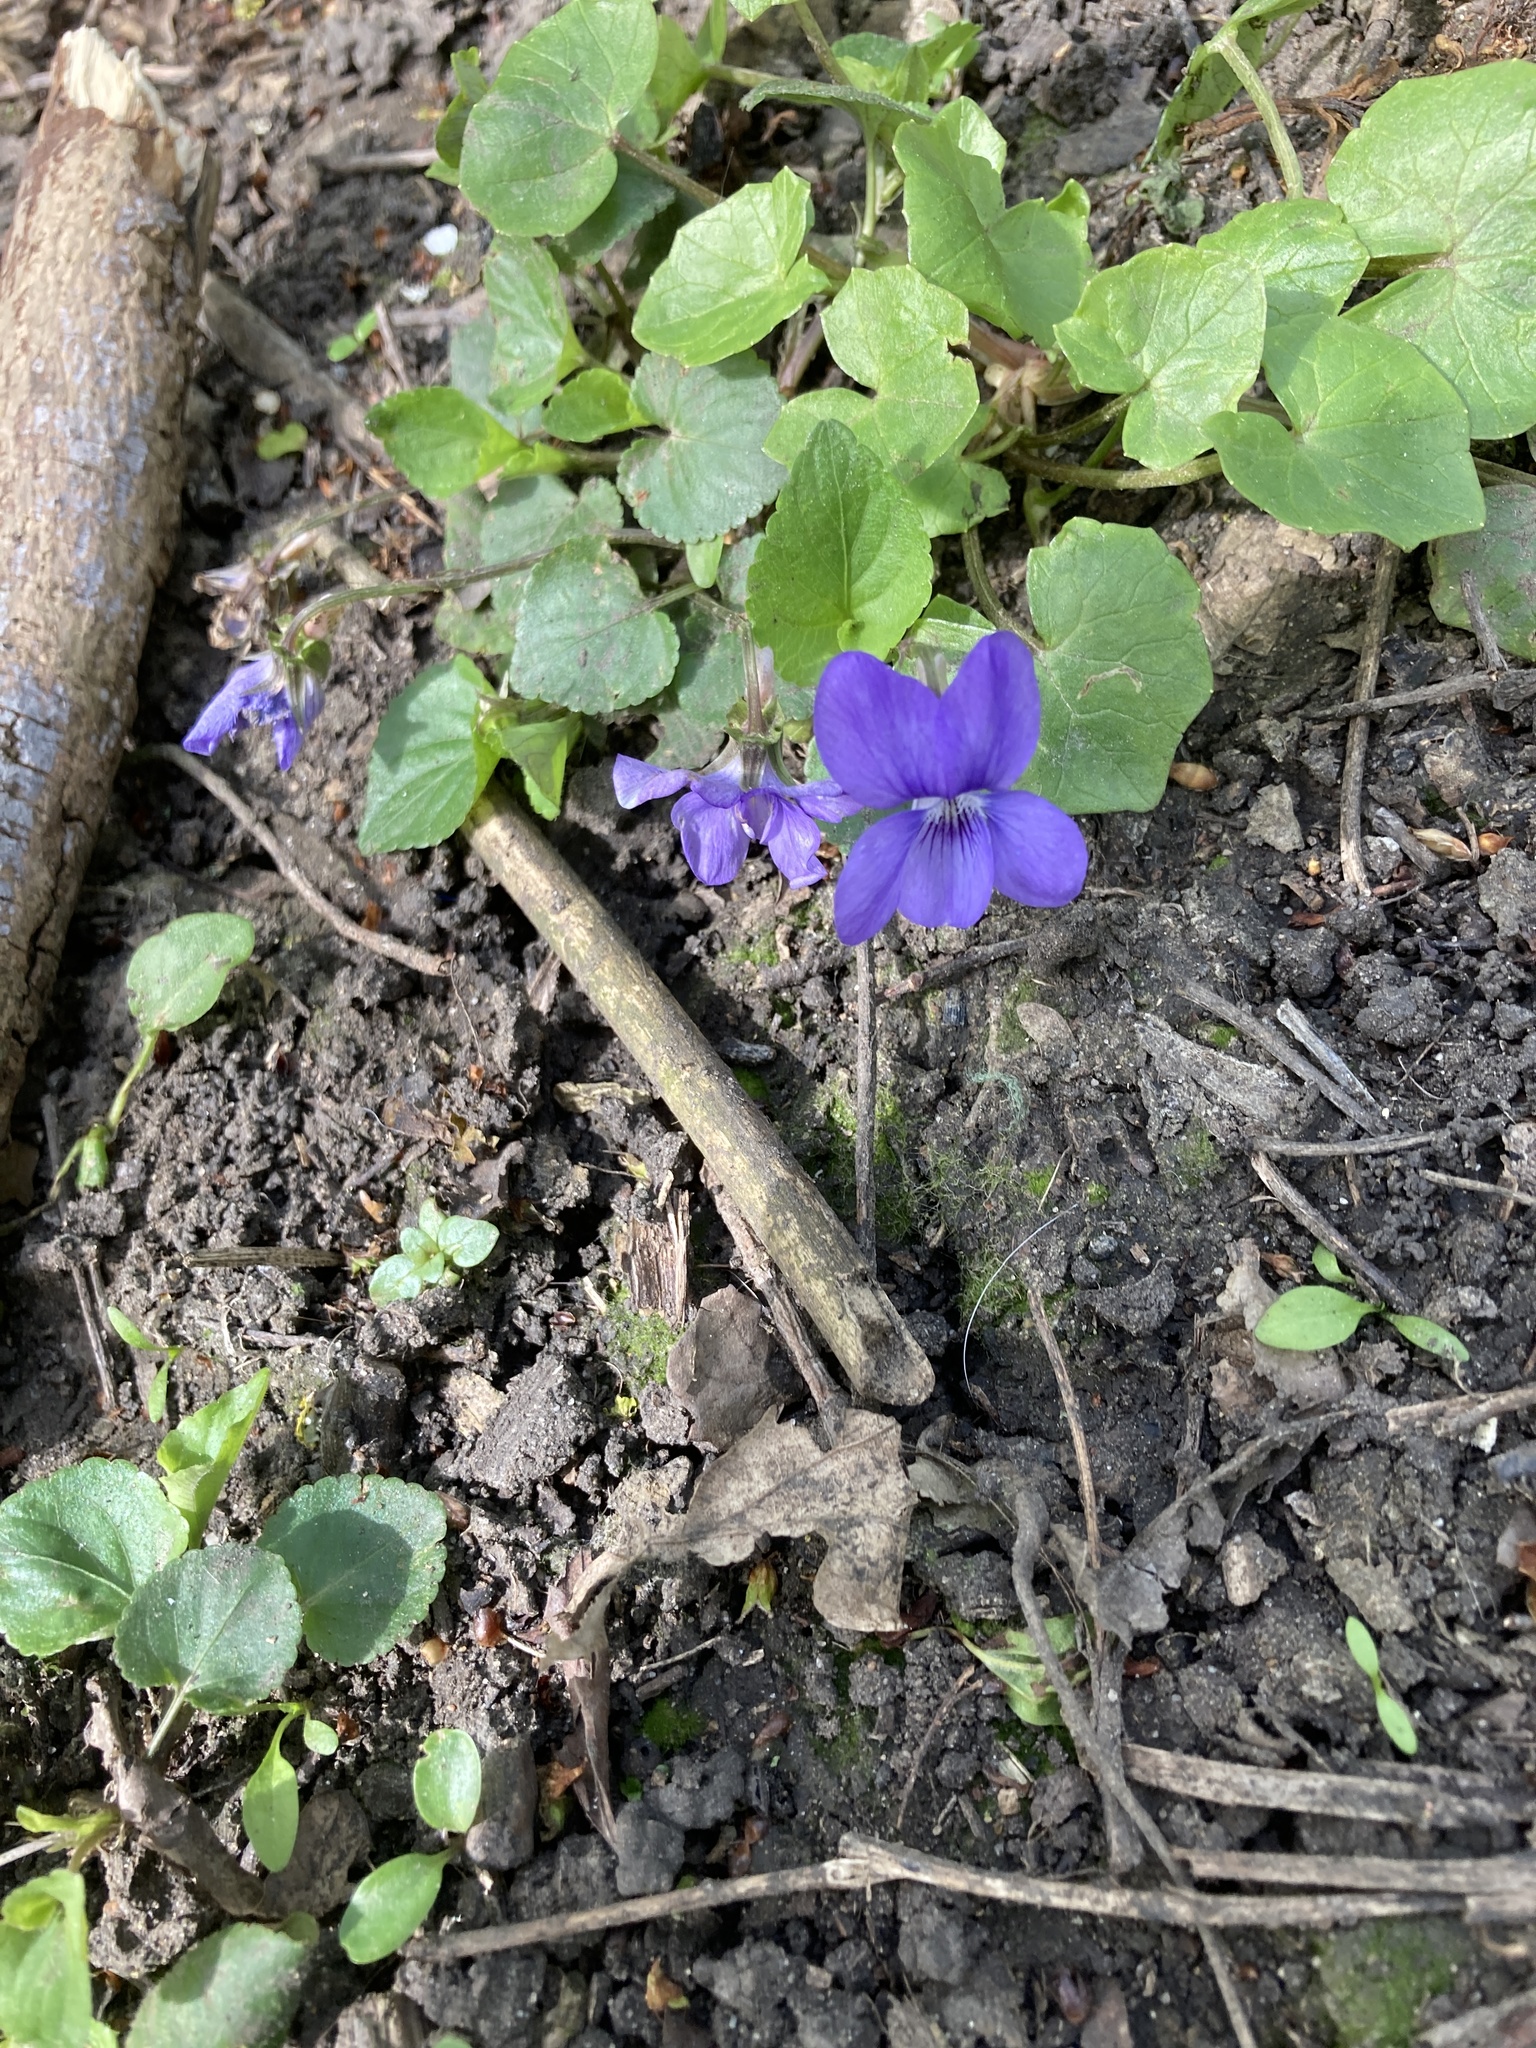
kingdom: Plantae
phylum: Tracheophyta
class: Magnoliopsida
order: Malpighiales
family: Violaceae
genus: Viola
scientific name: Viola riviniana
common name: Common dog-violet
